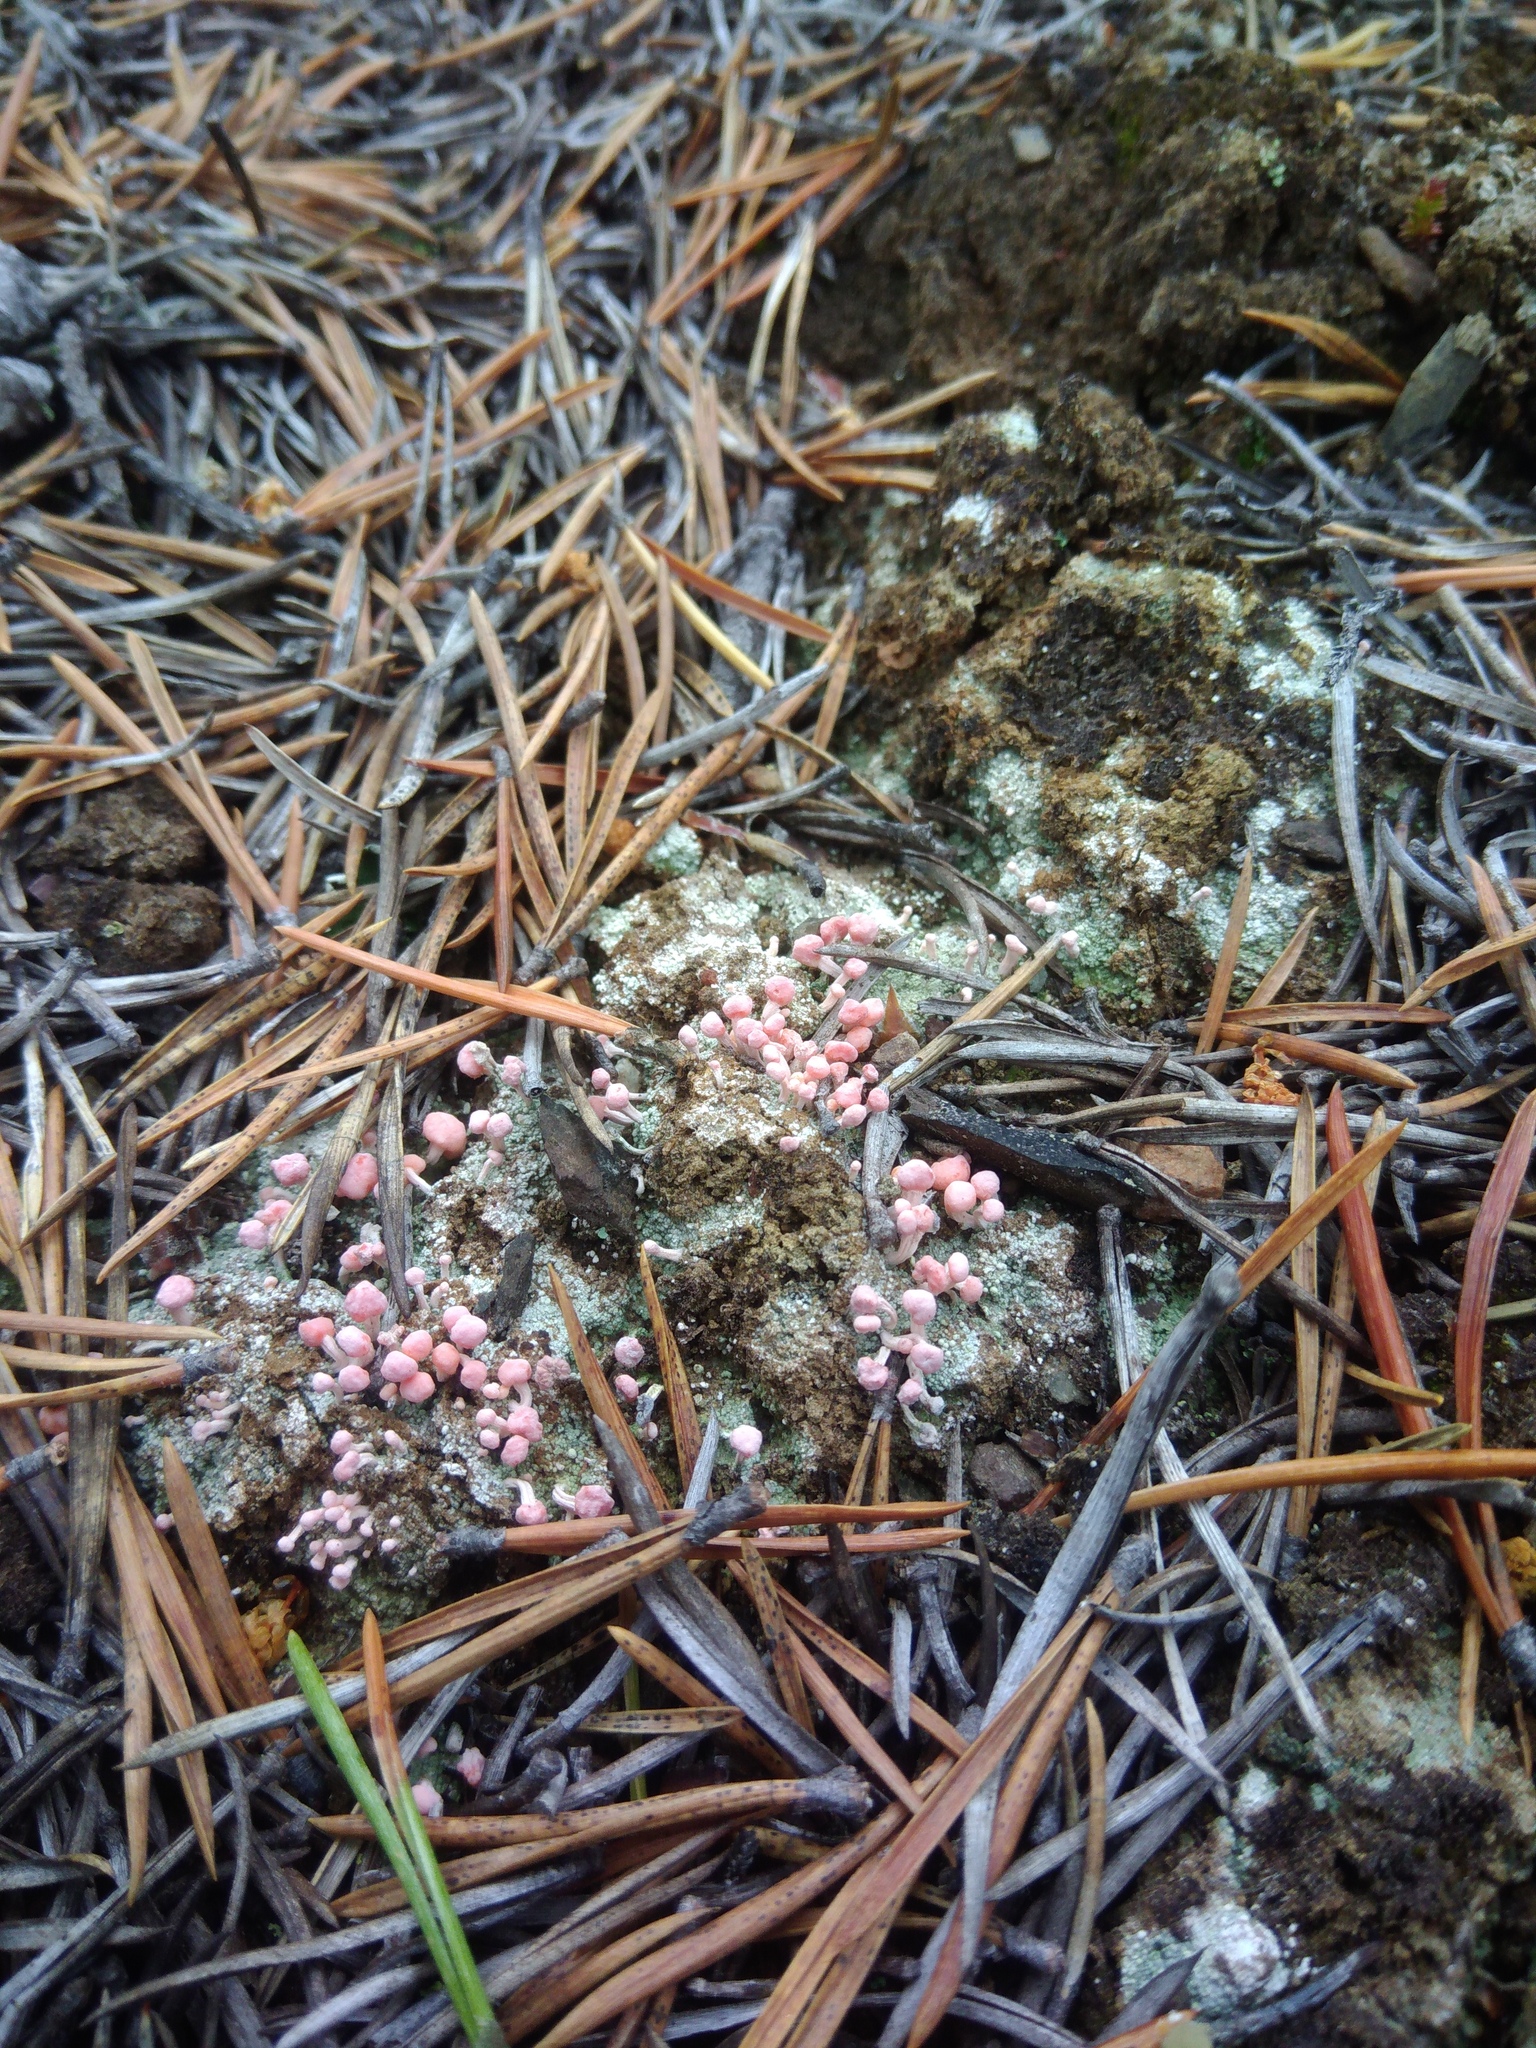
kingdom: Fungi
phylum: Ascomycota
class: Lecanoromycetes
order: Pertusariales
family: Icmadophilaceae
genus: Dibaeis
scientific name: Dibaeis baeomyces
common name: Pink earth lichen
